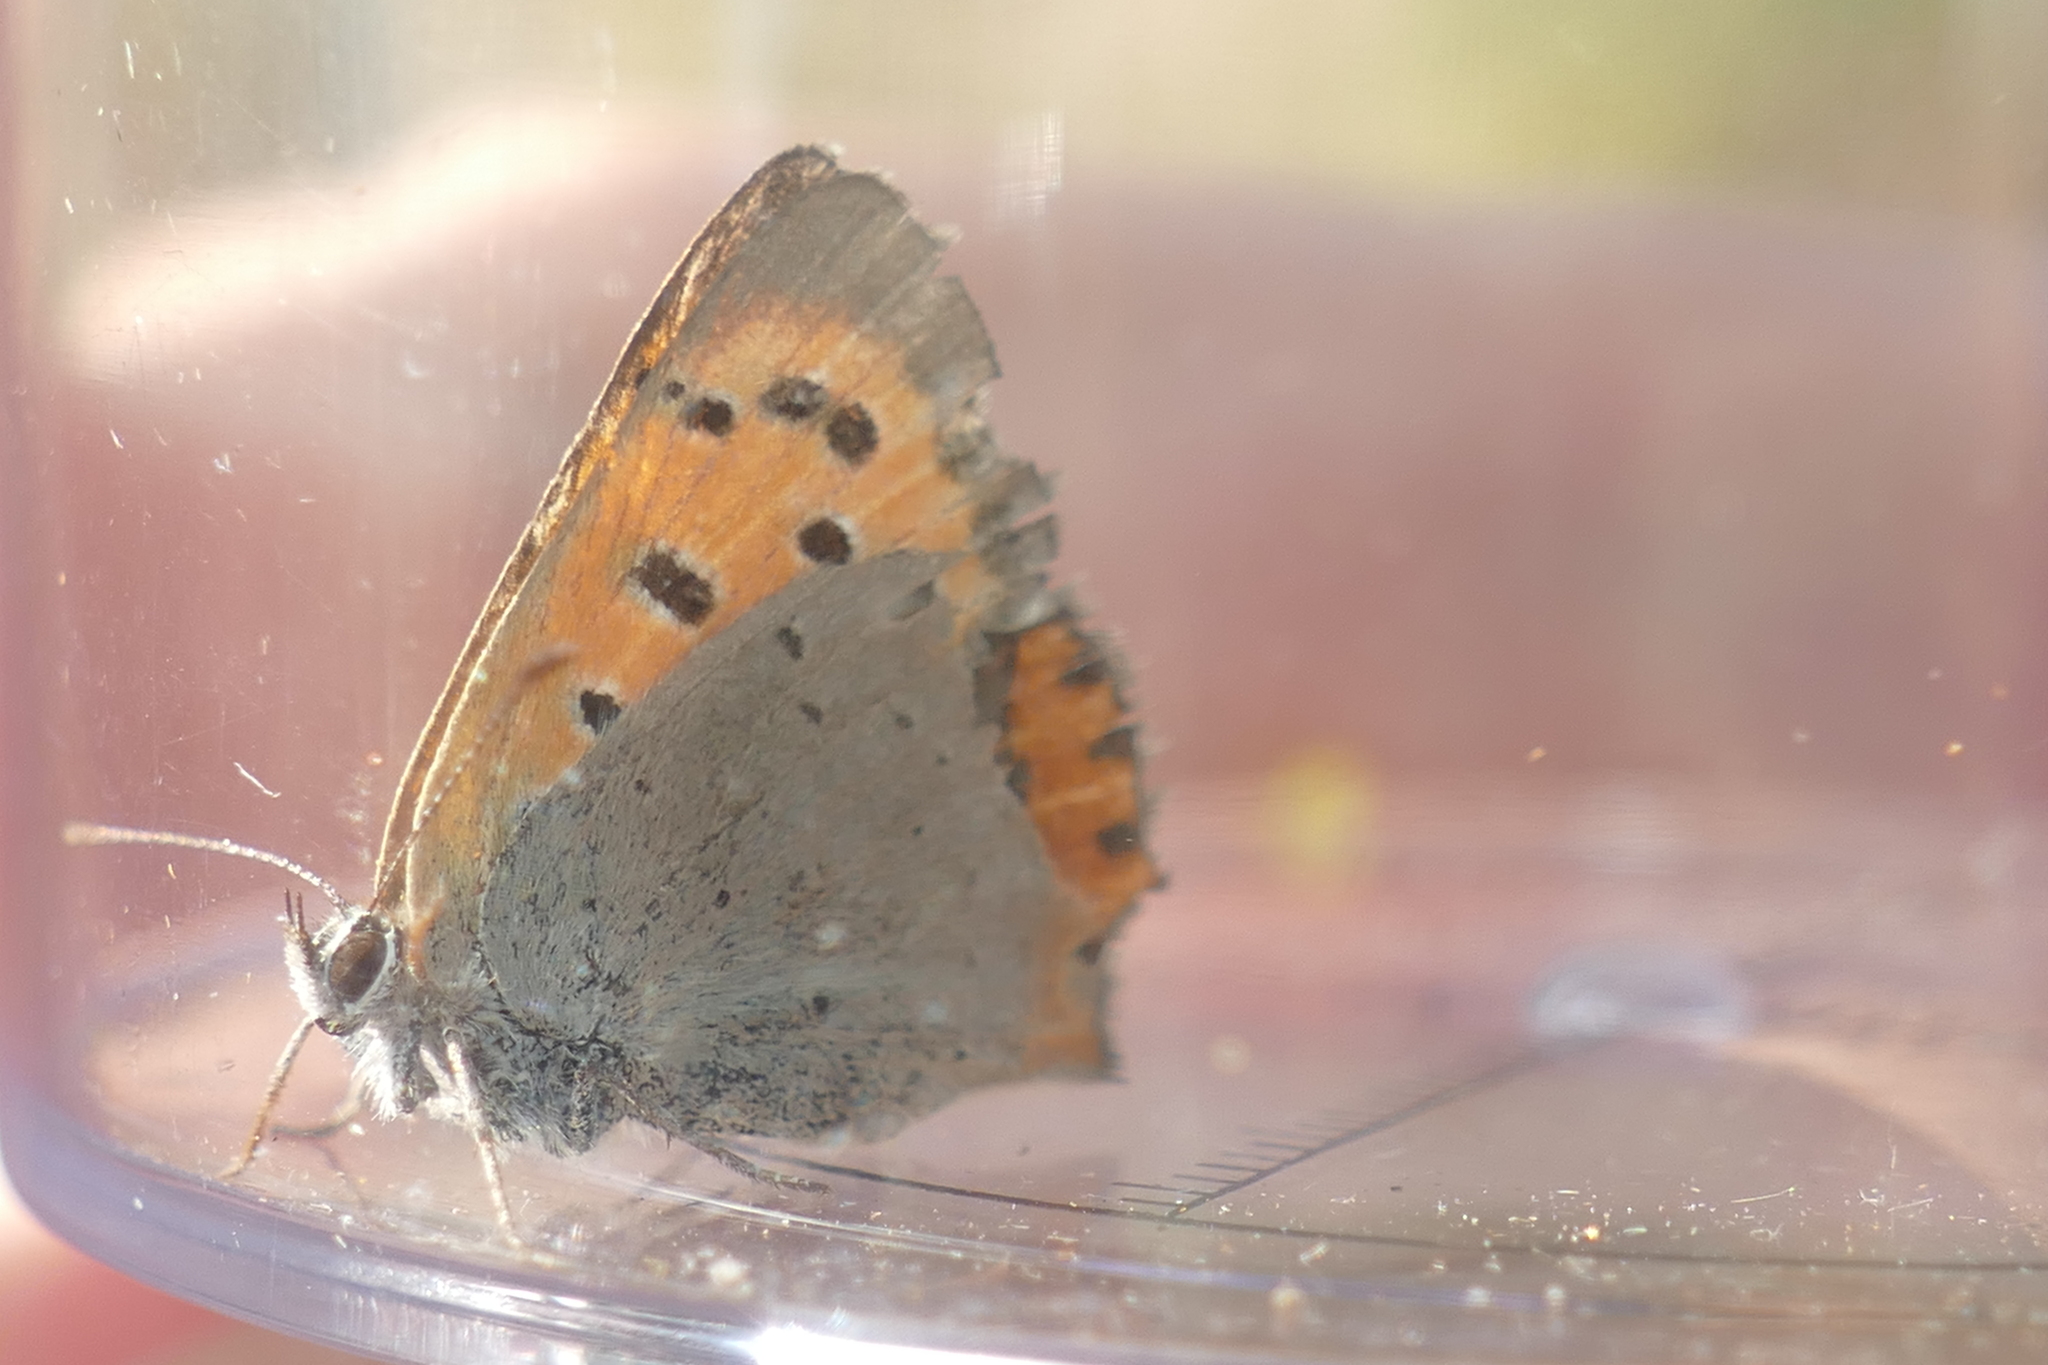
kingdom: Animalia
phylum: Arthropoda
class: Insecta
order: Lepidoptera
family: Lycaenidae
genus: Lycaena
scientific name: Lycaena phlaeas
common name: Small copper
